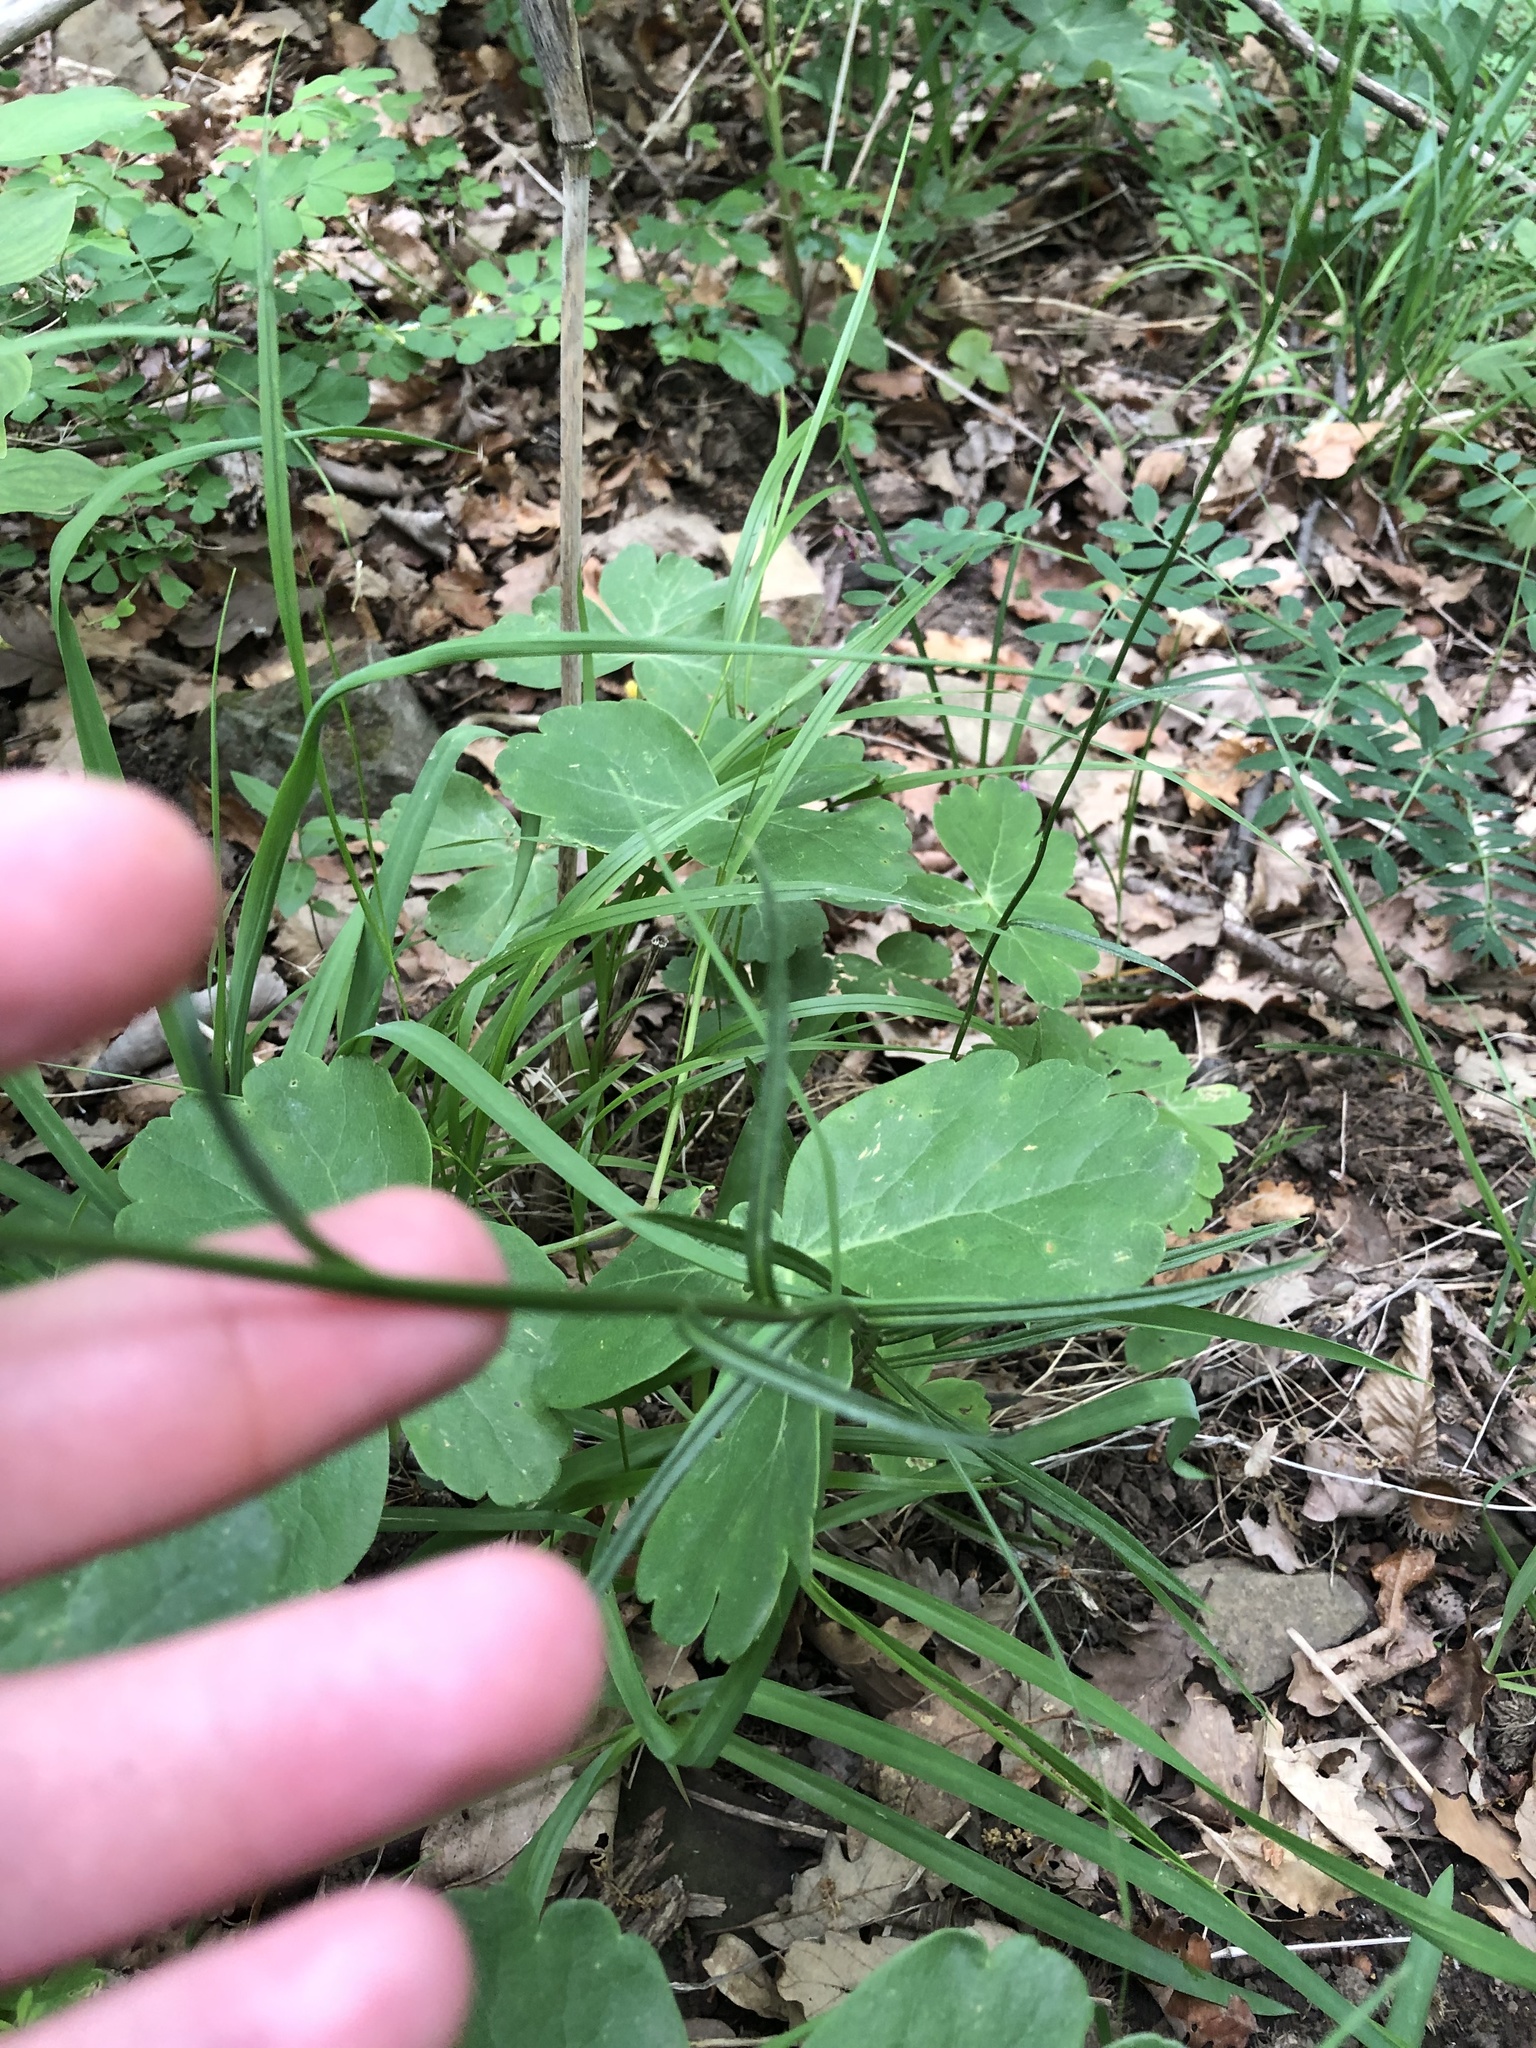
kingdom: Plantae
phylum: Tracheophyta
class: Magnoliopsida
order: Asterales
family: Campanulaceae
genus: Campanula
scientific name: Campanula persicifolia
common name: Peach-leaved bellflower
